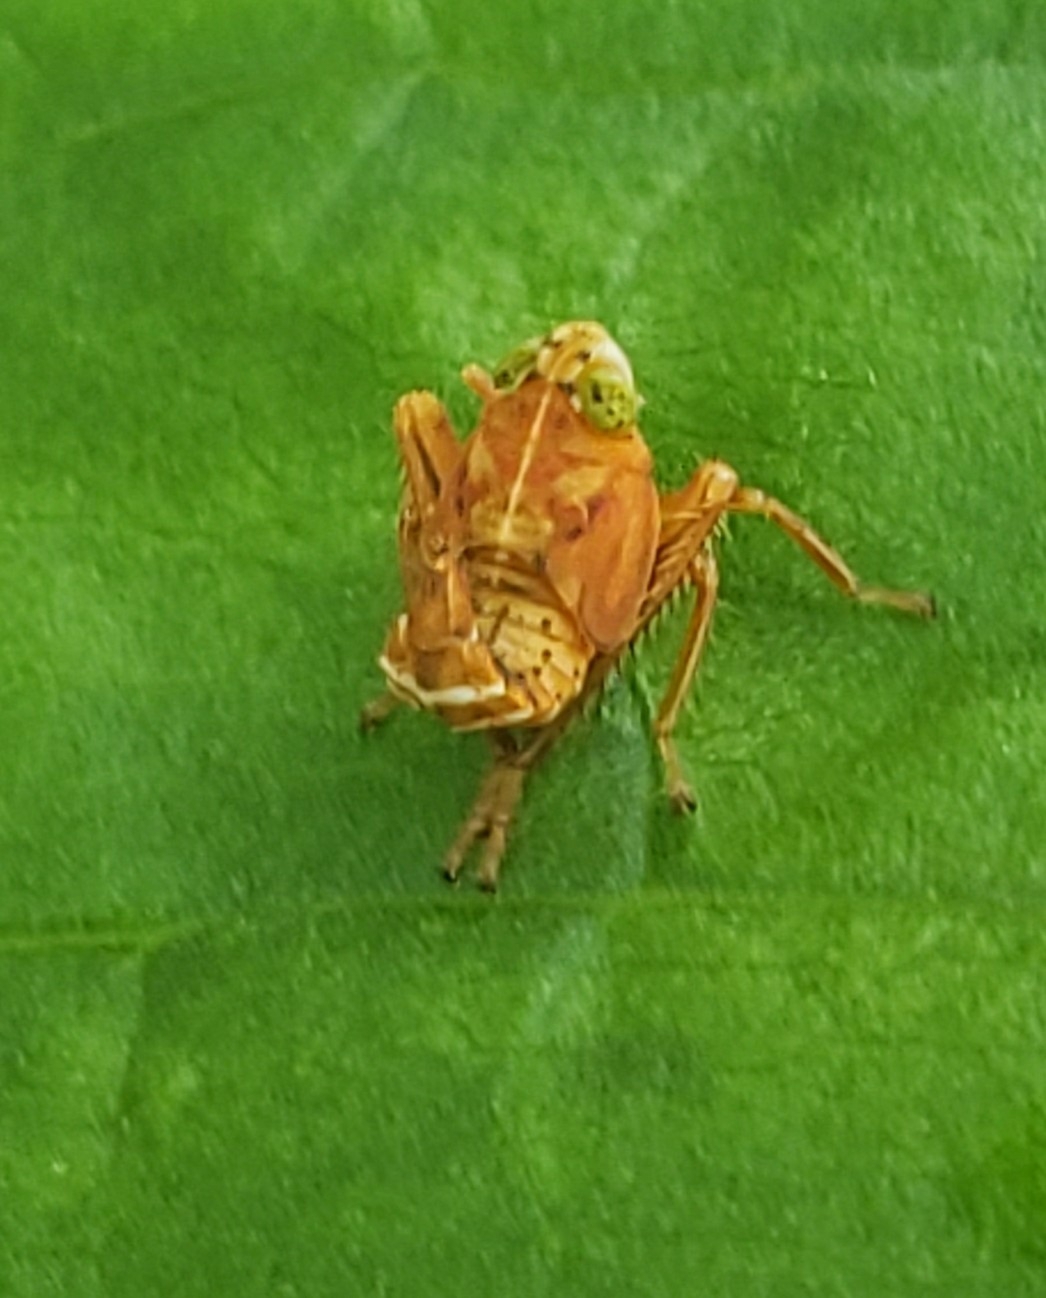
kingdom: Animalia
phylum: Arthropoda
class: Insecta
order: Hemiptera
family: Cicadellidae
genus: Jikradia
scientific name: Jikradia olitoria
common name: Coppery leafhopper
